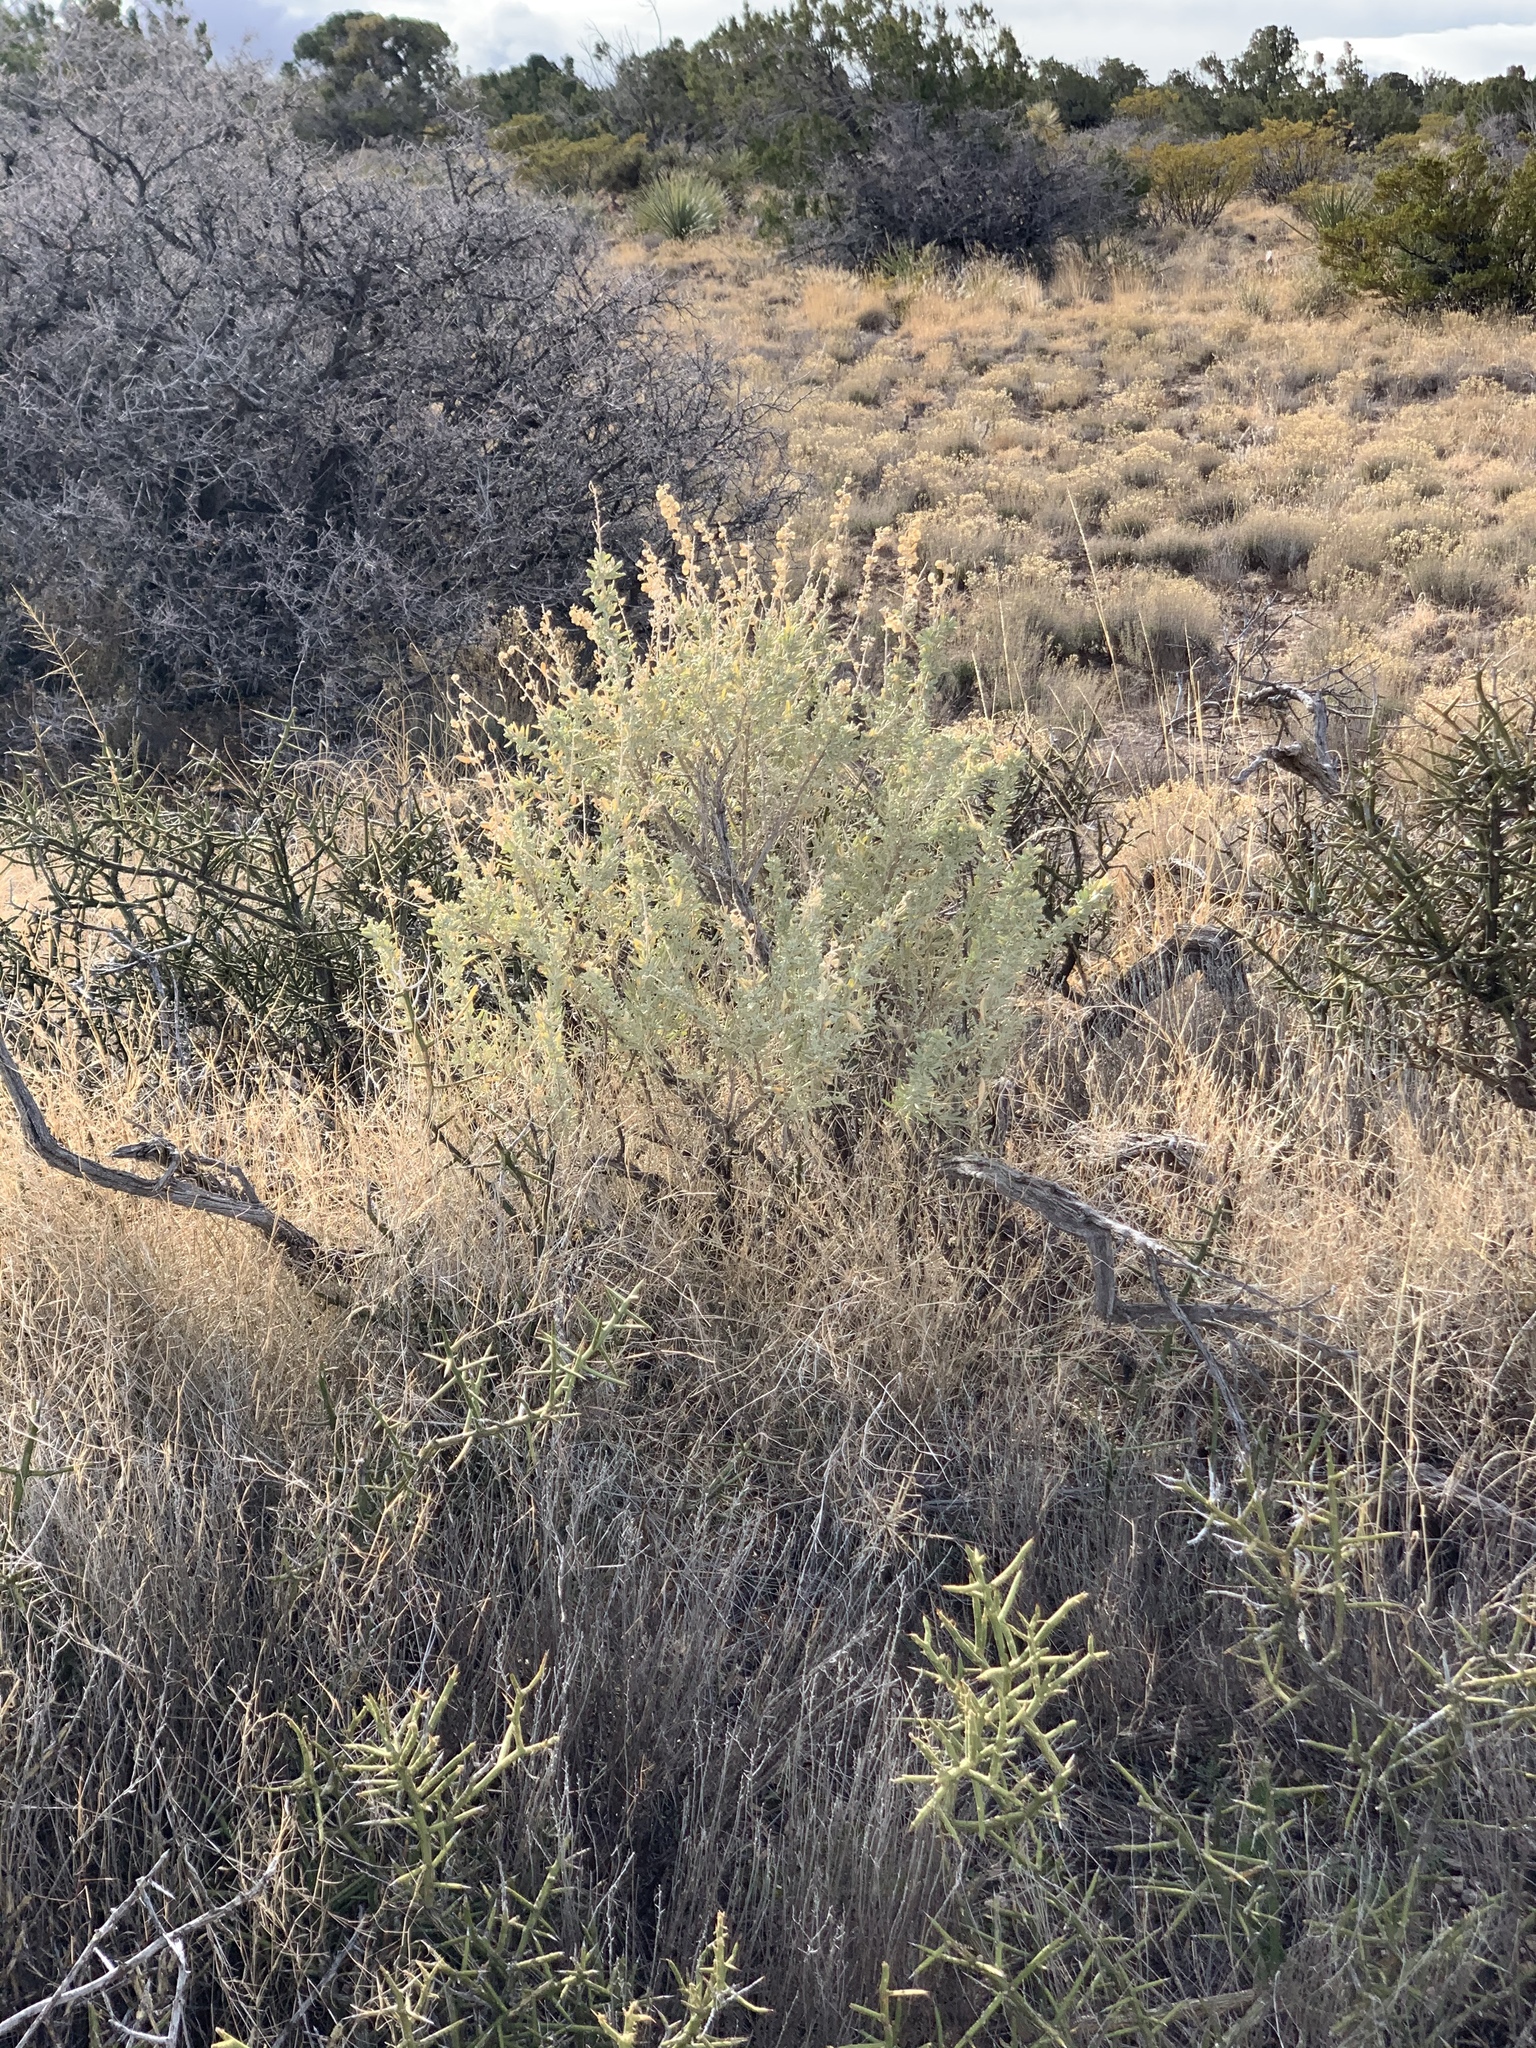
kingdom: Plantae
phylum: Tracheophyta
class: Magnoliopsida
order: Caryophyllales
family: Amaranthaceae
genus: Atriplex
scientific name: Atriplex canescens
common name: Four-wing saltbush
